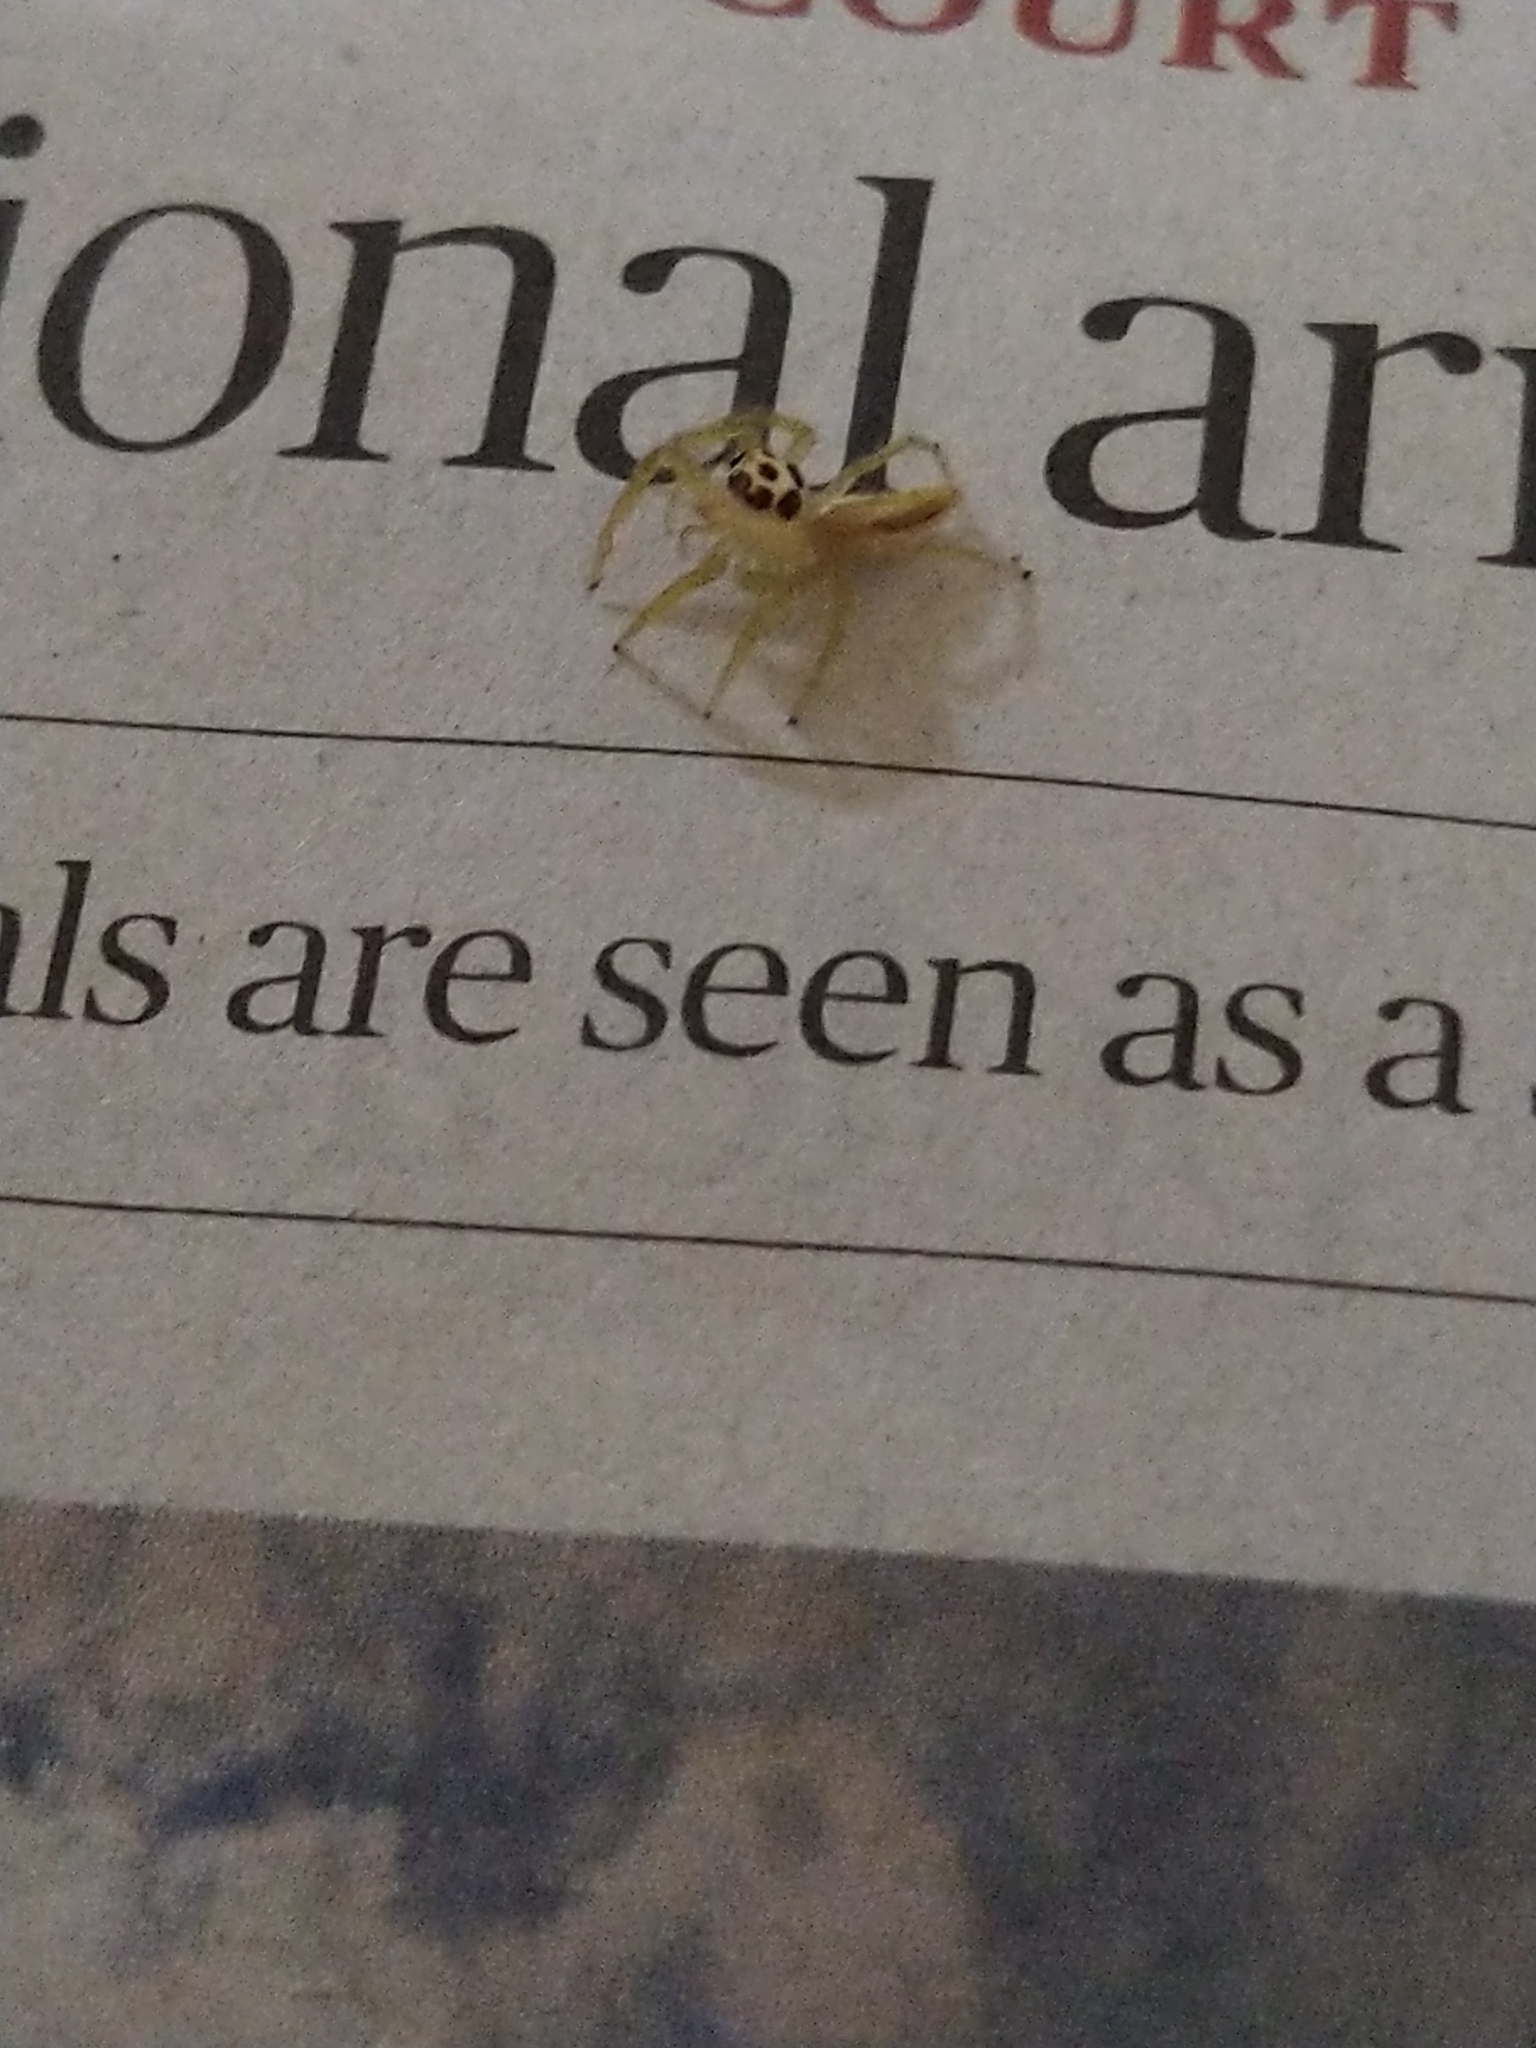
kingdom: Animalia
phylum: Arthropoda
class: Arachnida
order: Araneae
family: Salticidae
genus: Telamonia
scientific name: Telamonia dimidiata
